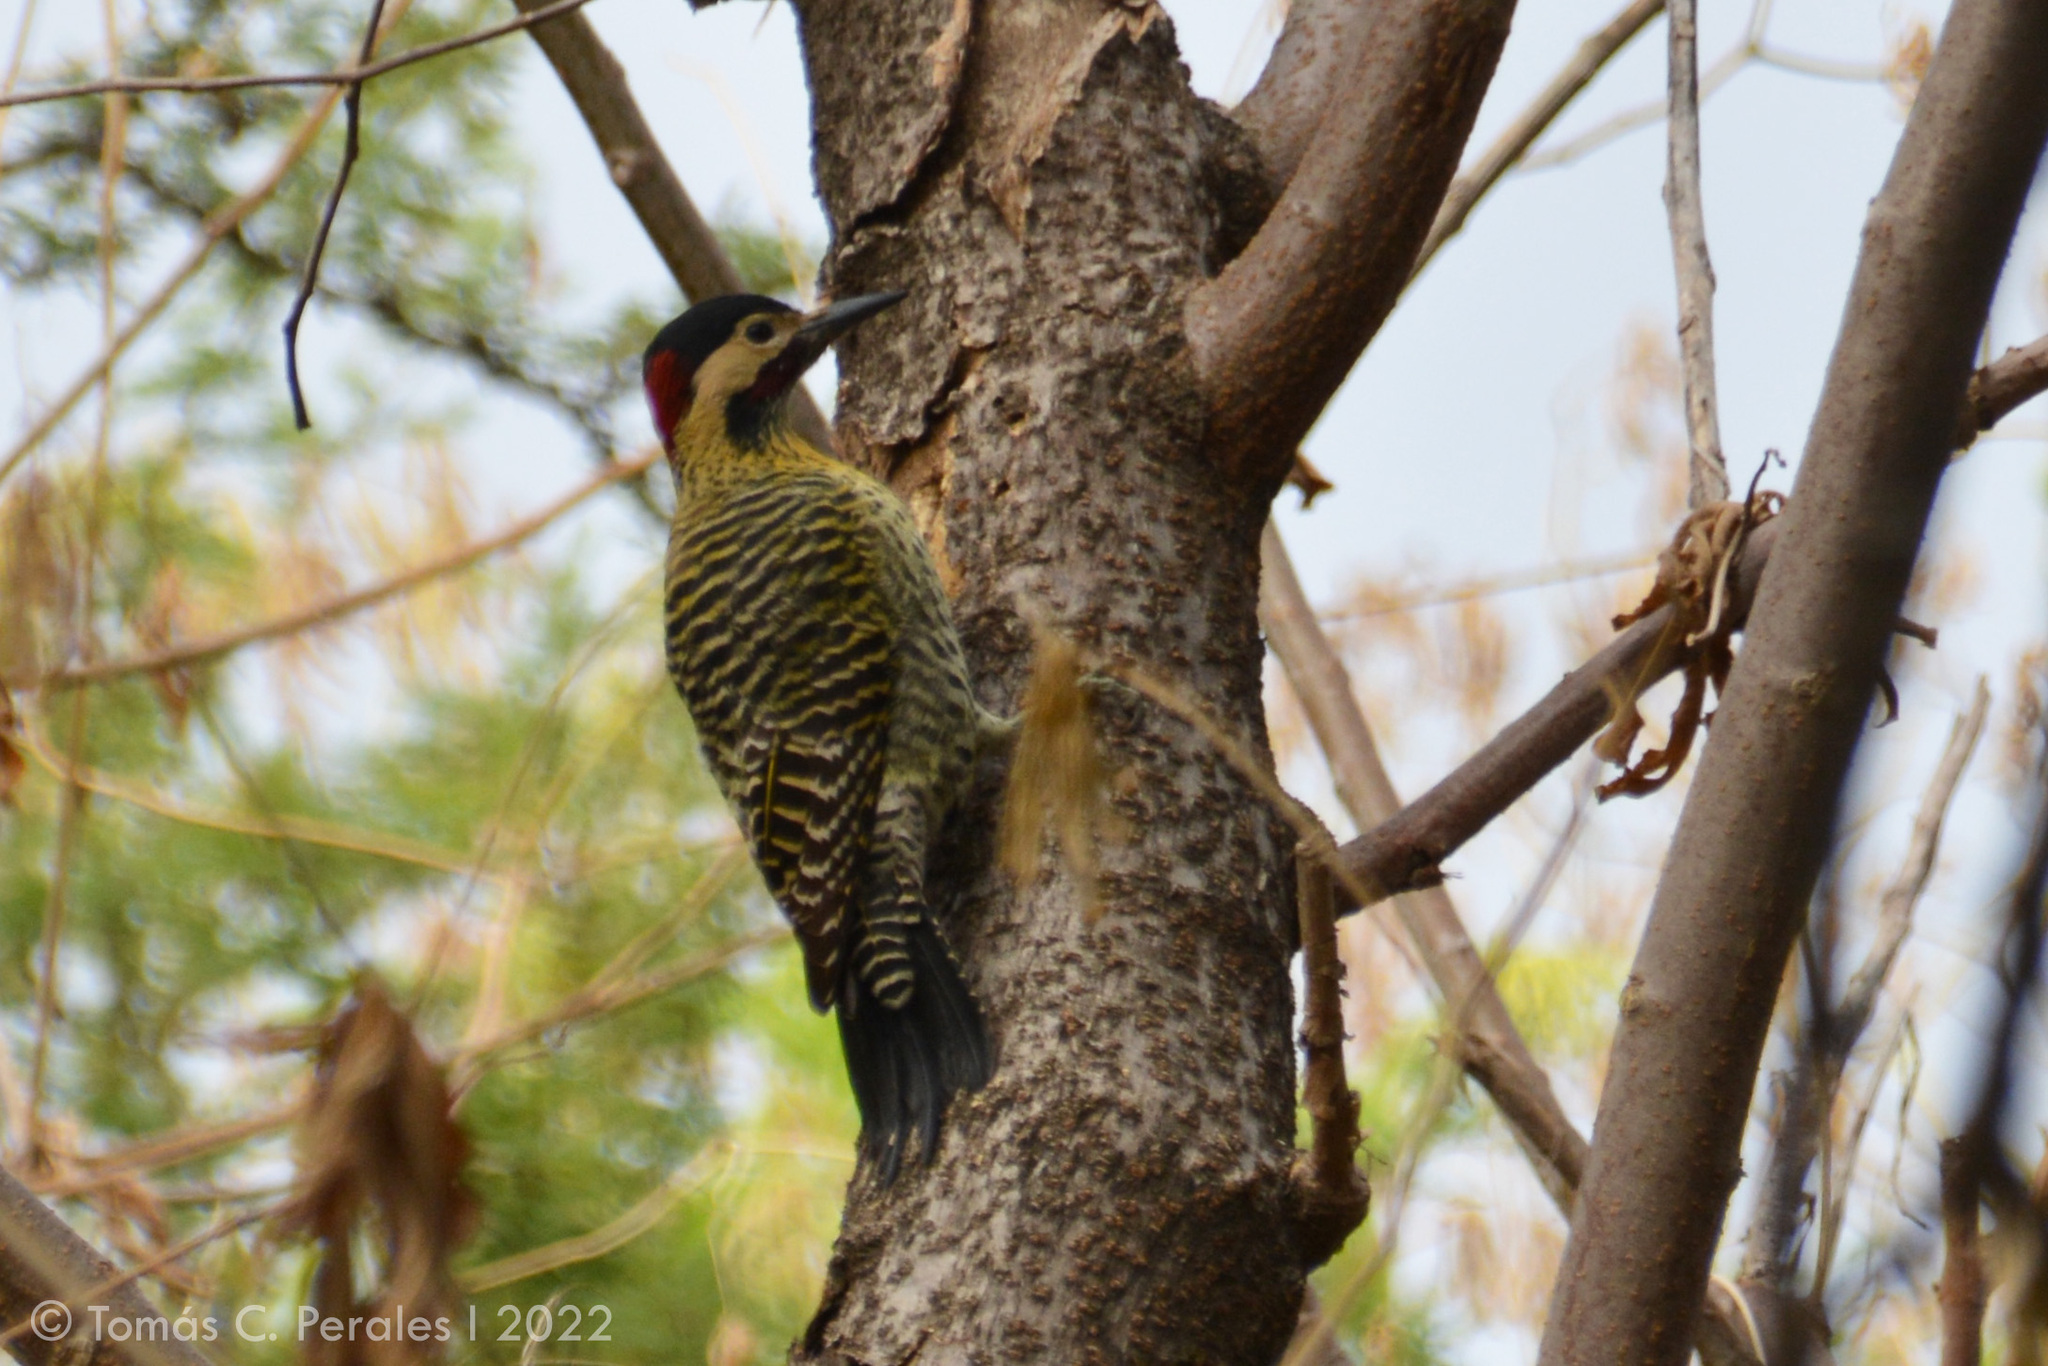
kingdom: Animalia
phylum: Chordata
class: Aves
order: Piciformes
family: Picidae
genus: Colaptes
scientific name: Colaptes melanochloros
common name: Green-barred woodpecker
